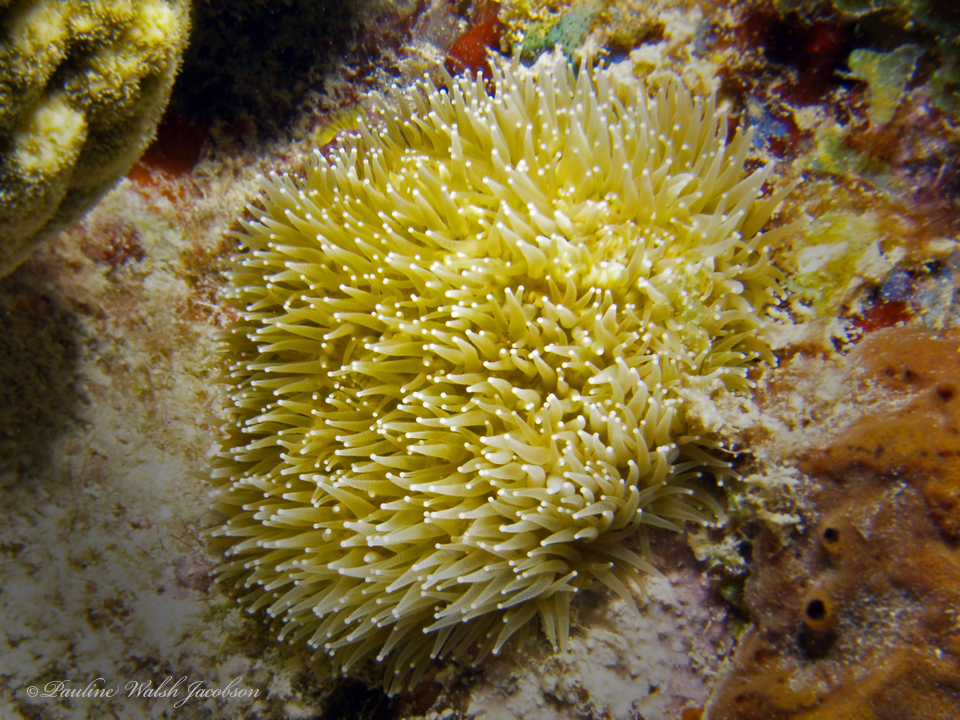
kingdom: Animalia
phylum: Cnidaria
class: Anthozoa
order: Scleractinia
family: Meandrinidae
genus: Dendrogyra
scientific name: Dendrogyra cylindrus
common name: Pillar coral
